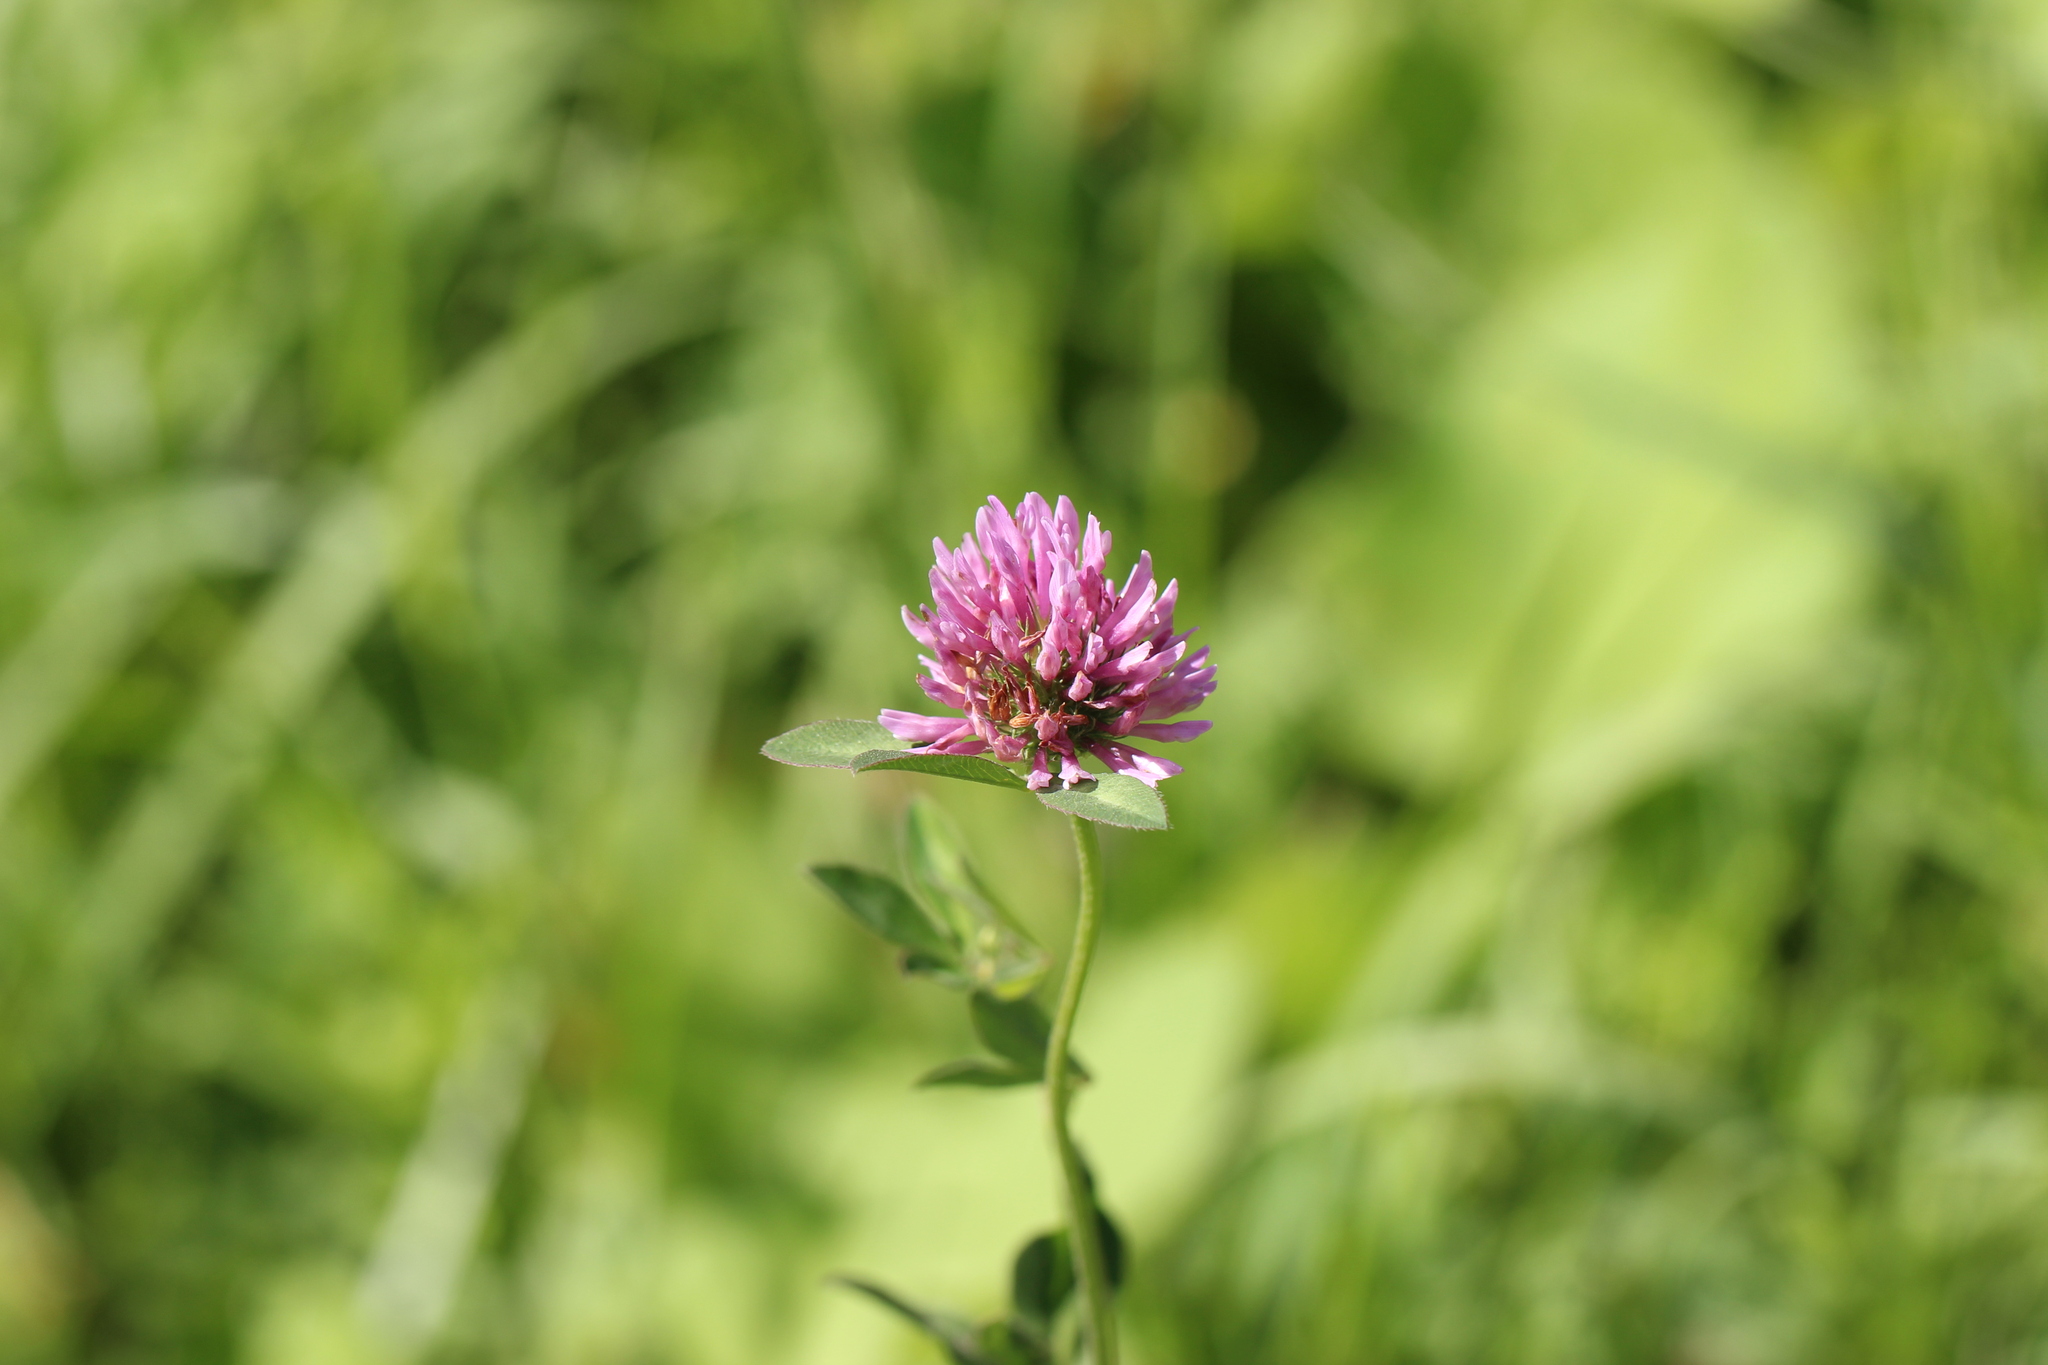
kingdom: Plantae
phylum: Tracheophyta
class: Magnoliopsida
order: Fabales
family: Fabaceae
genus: Trifolium
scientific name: Trifolium pratense
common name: Red clover
